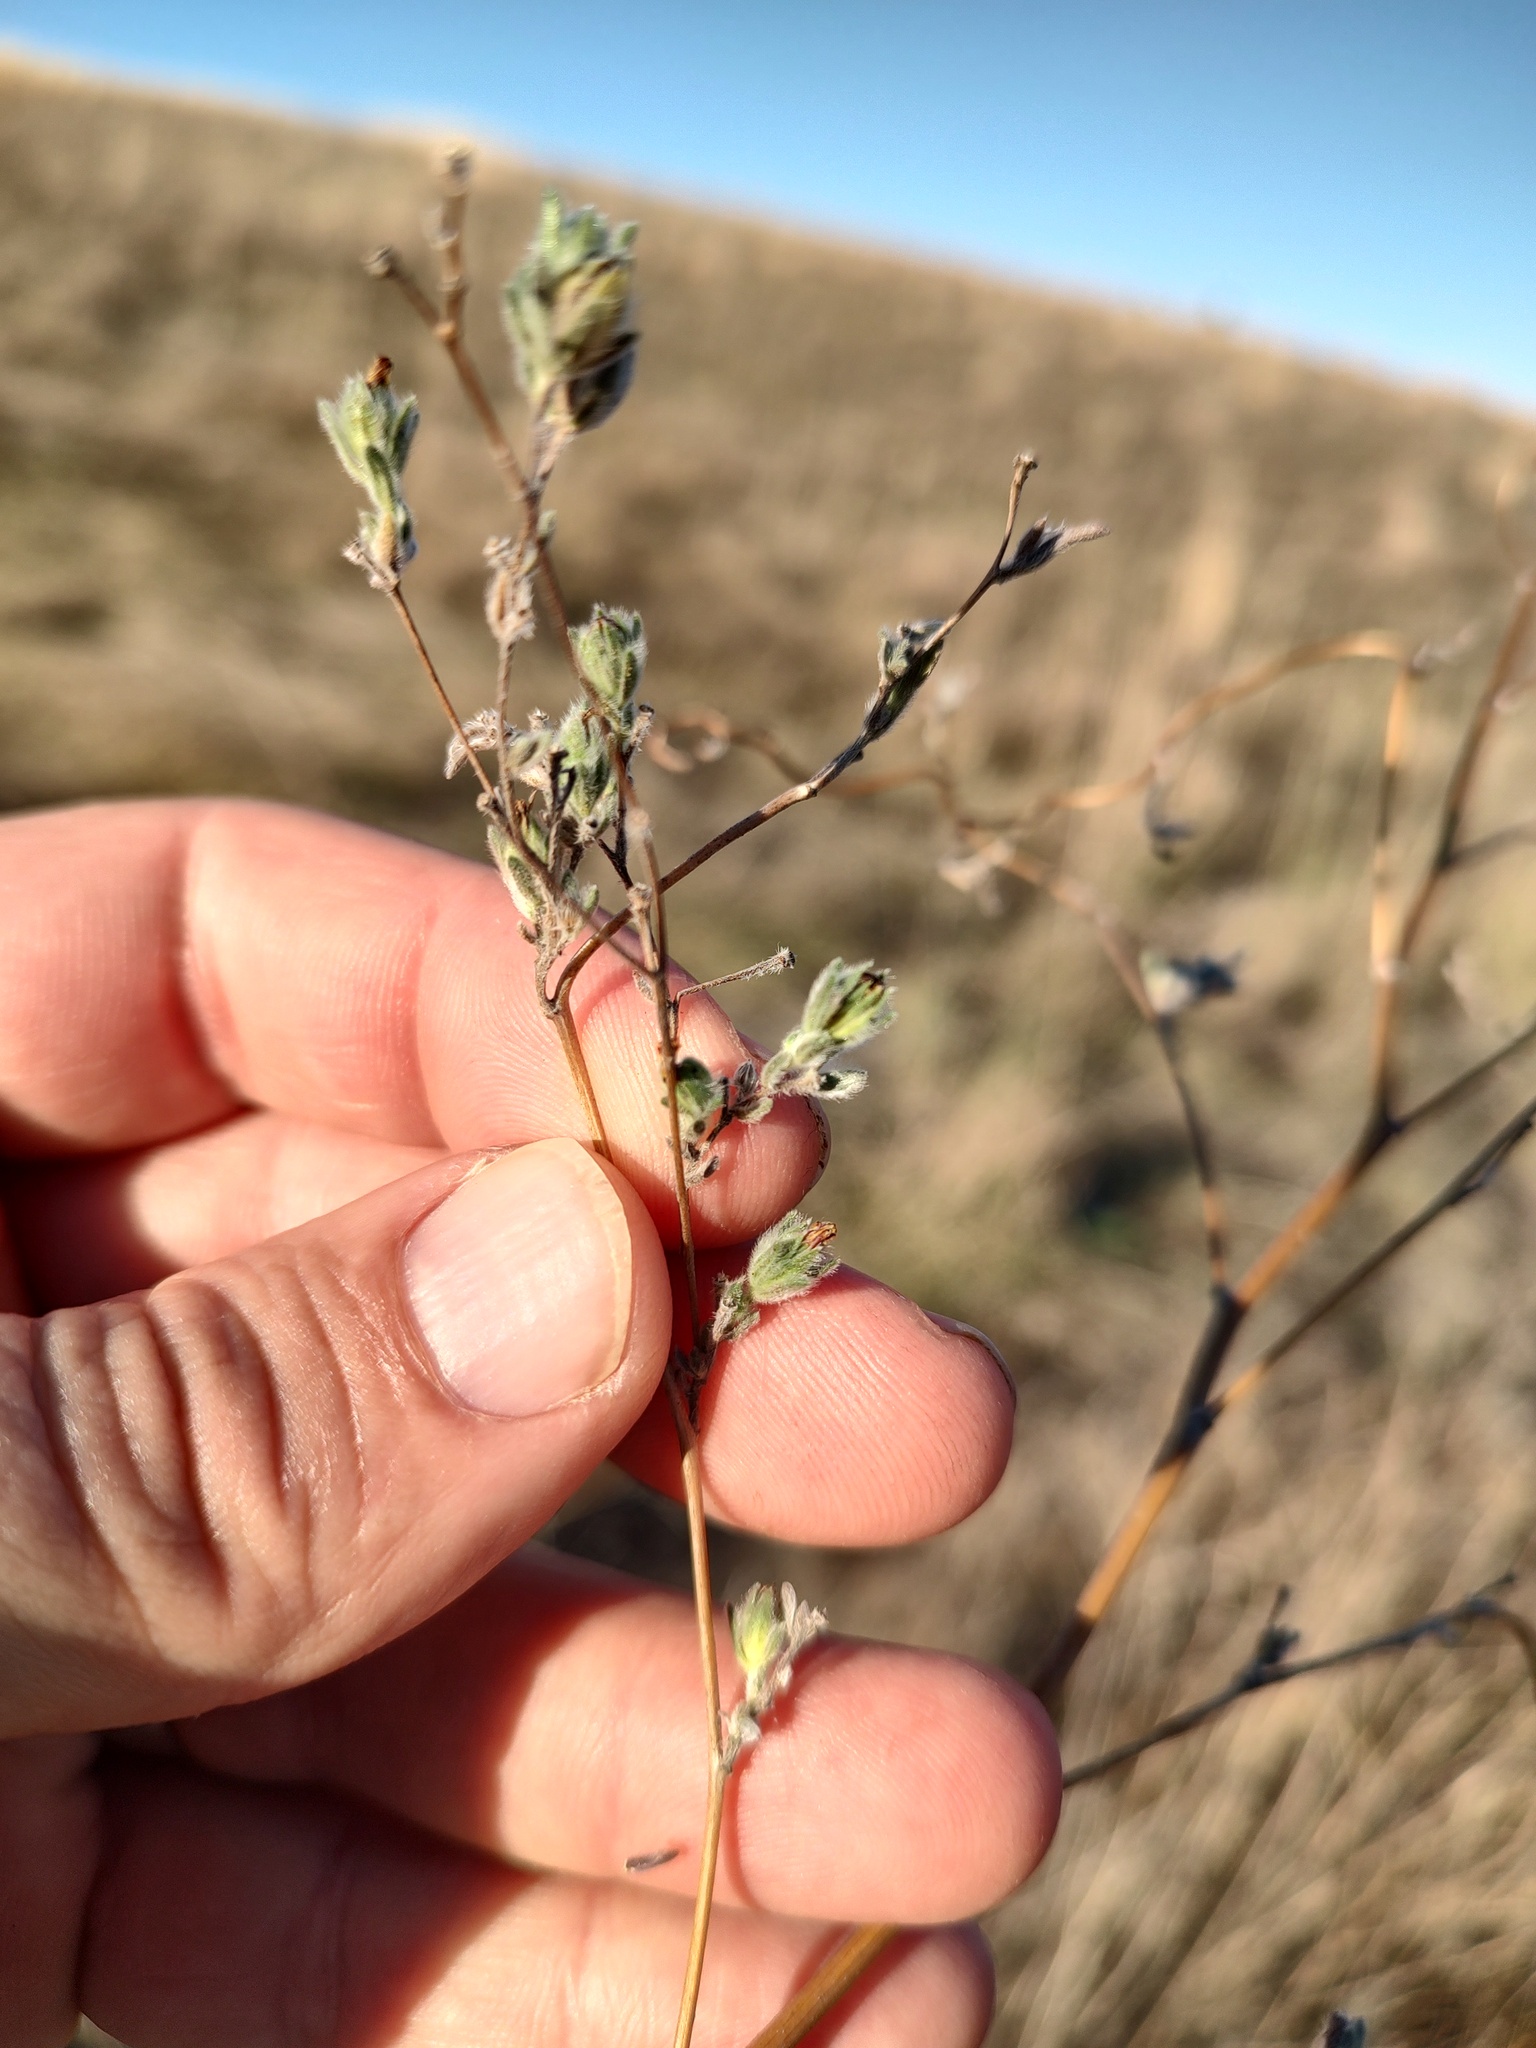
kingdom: Plantae
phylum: Tracheophyta
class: Magnoliopsida
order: Asterales
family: Asteraceae
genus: Lagophylla
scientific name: Lagophylla ramosissima
